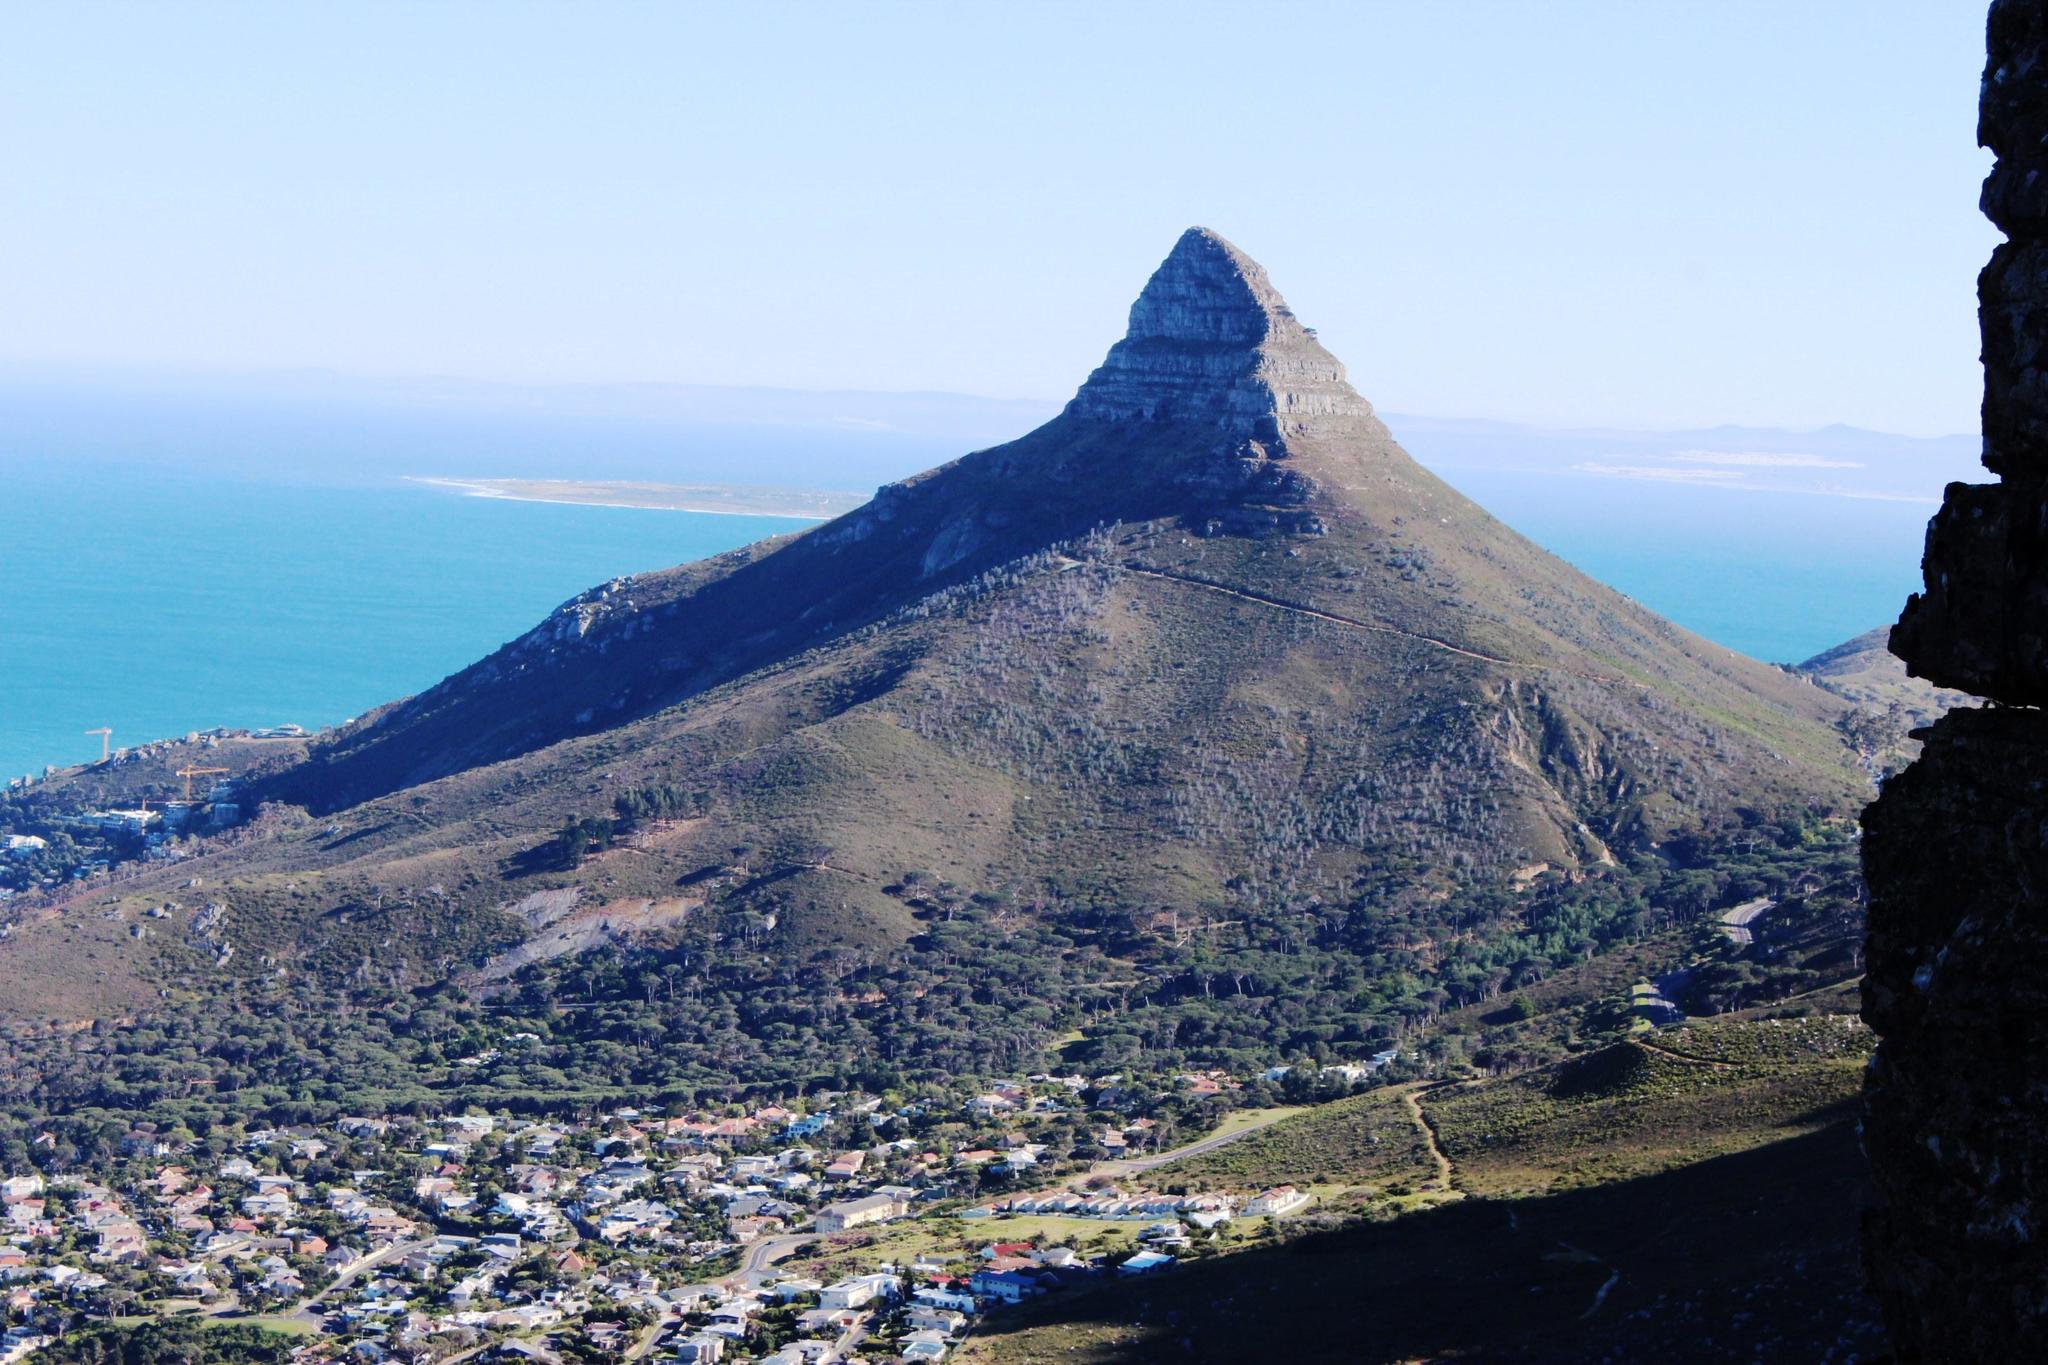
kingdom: Plantae
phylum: Tracheophyta
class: Magnoliopsida
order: Proteales
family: Proteaceae
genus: Leucadendron
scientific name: Leucadendron argenteum
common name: Cape silver tree
